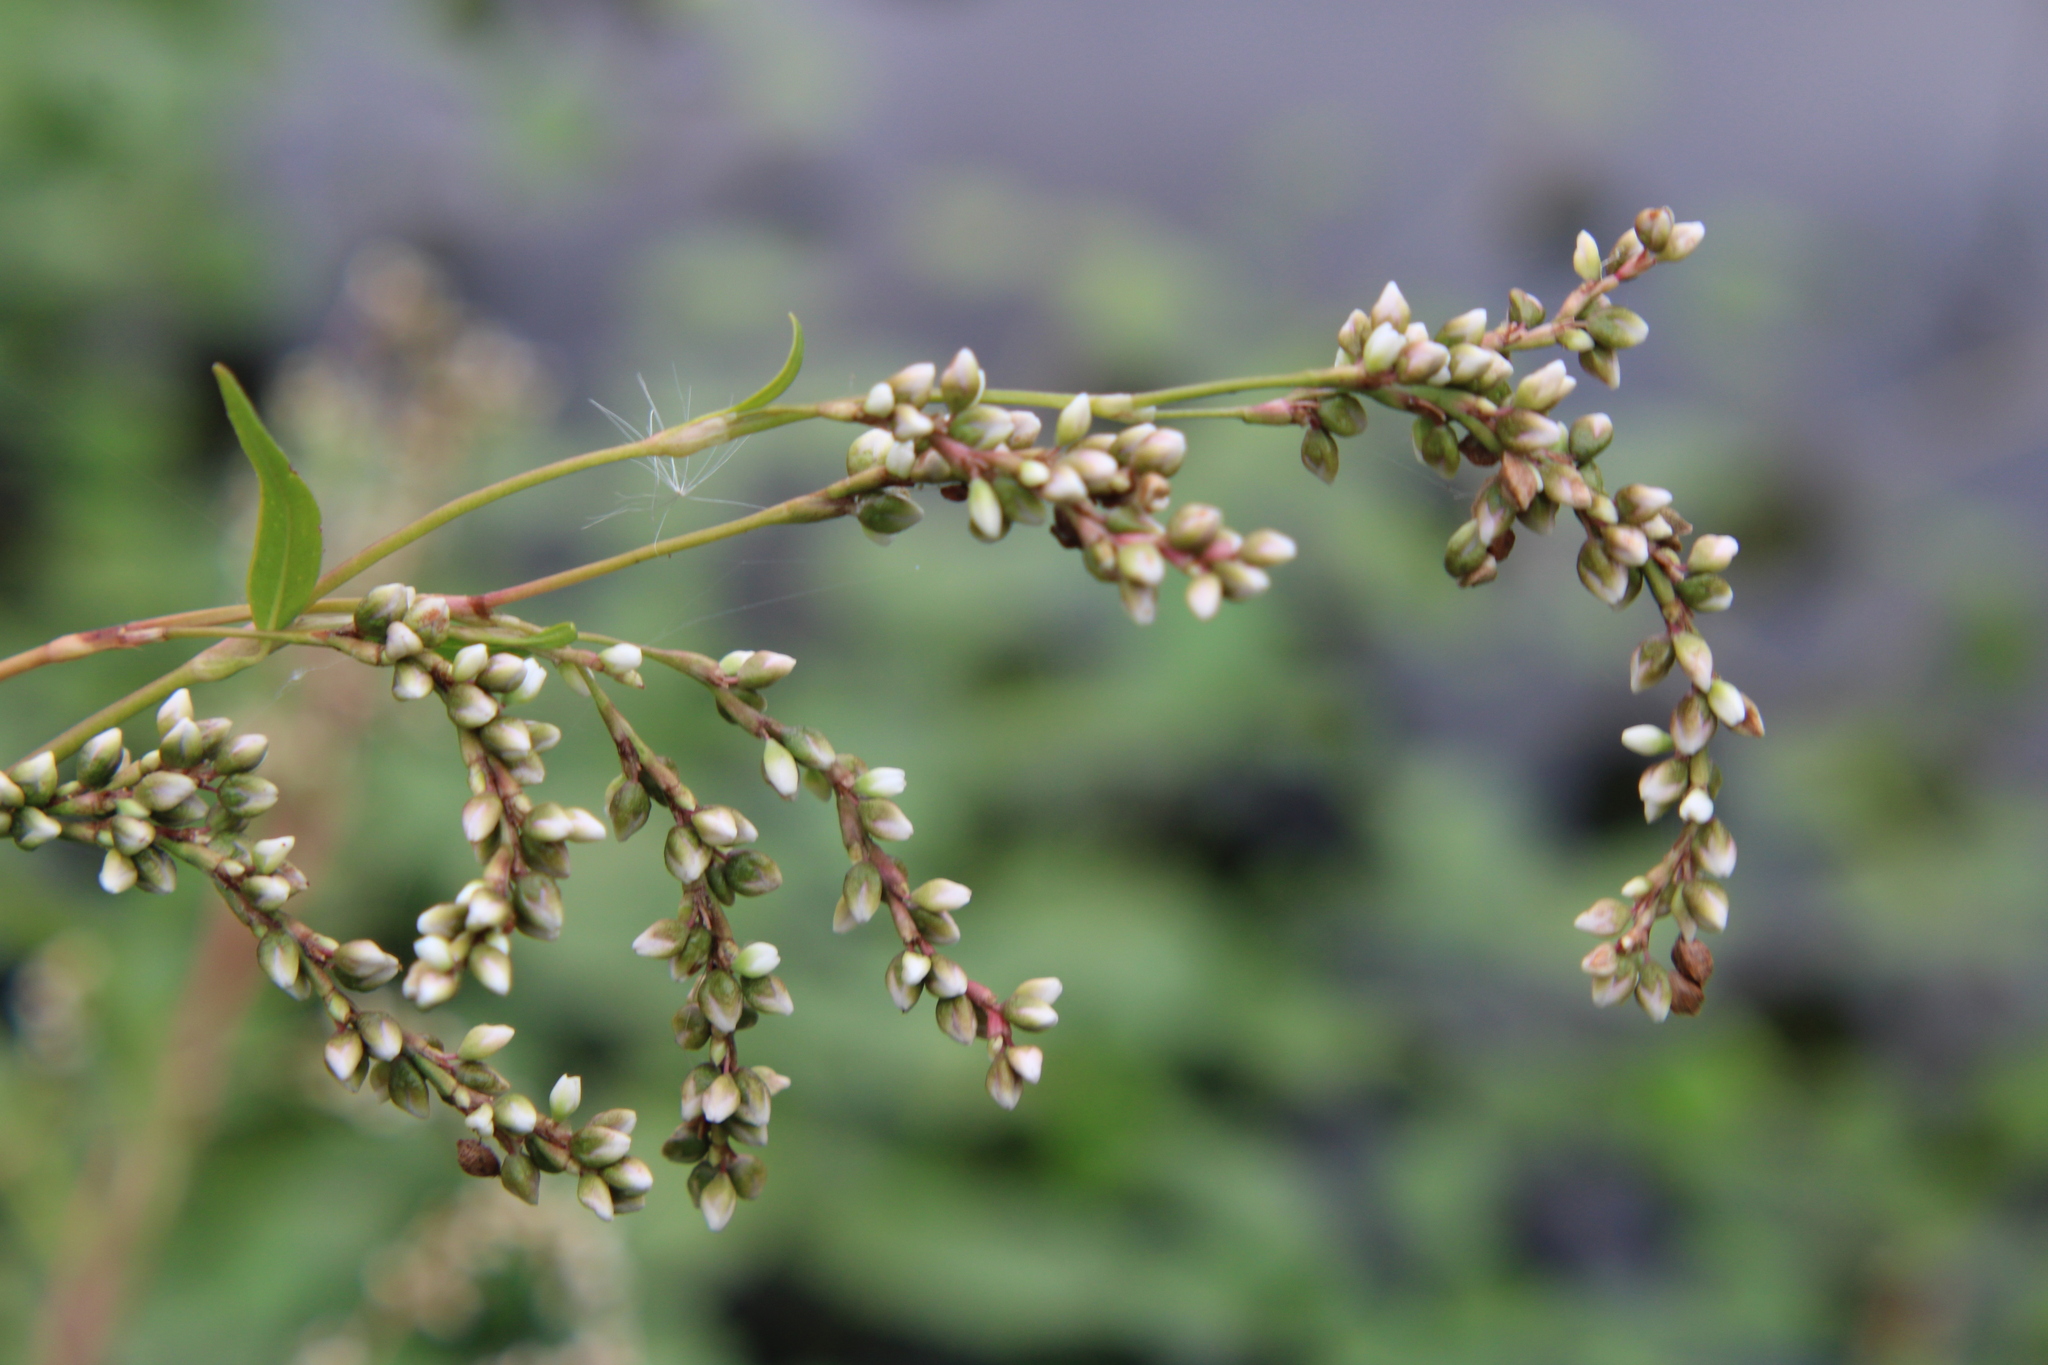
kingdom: Plantae
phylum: Tracheophyta
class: Magnoliopsida
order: Caryophyllales
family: Polygonaceae
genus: Persicaria
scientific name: Persicaria punctata
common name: Dotted smartweed
